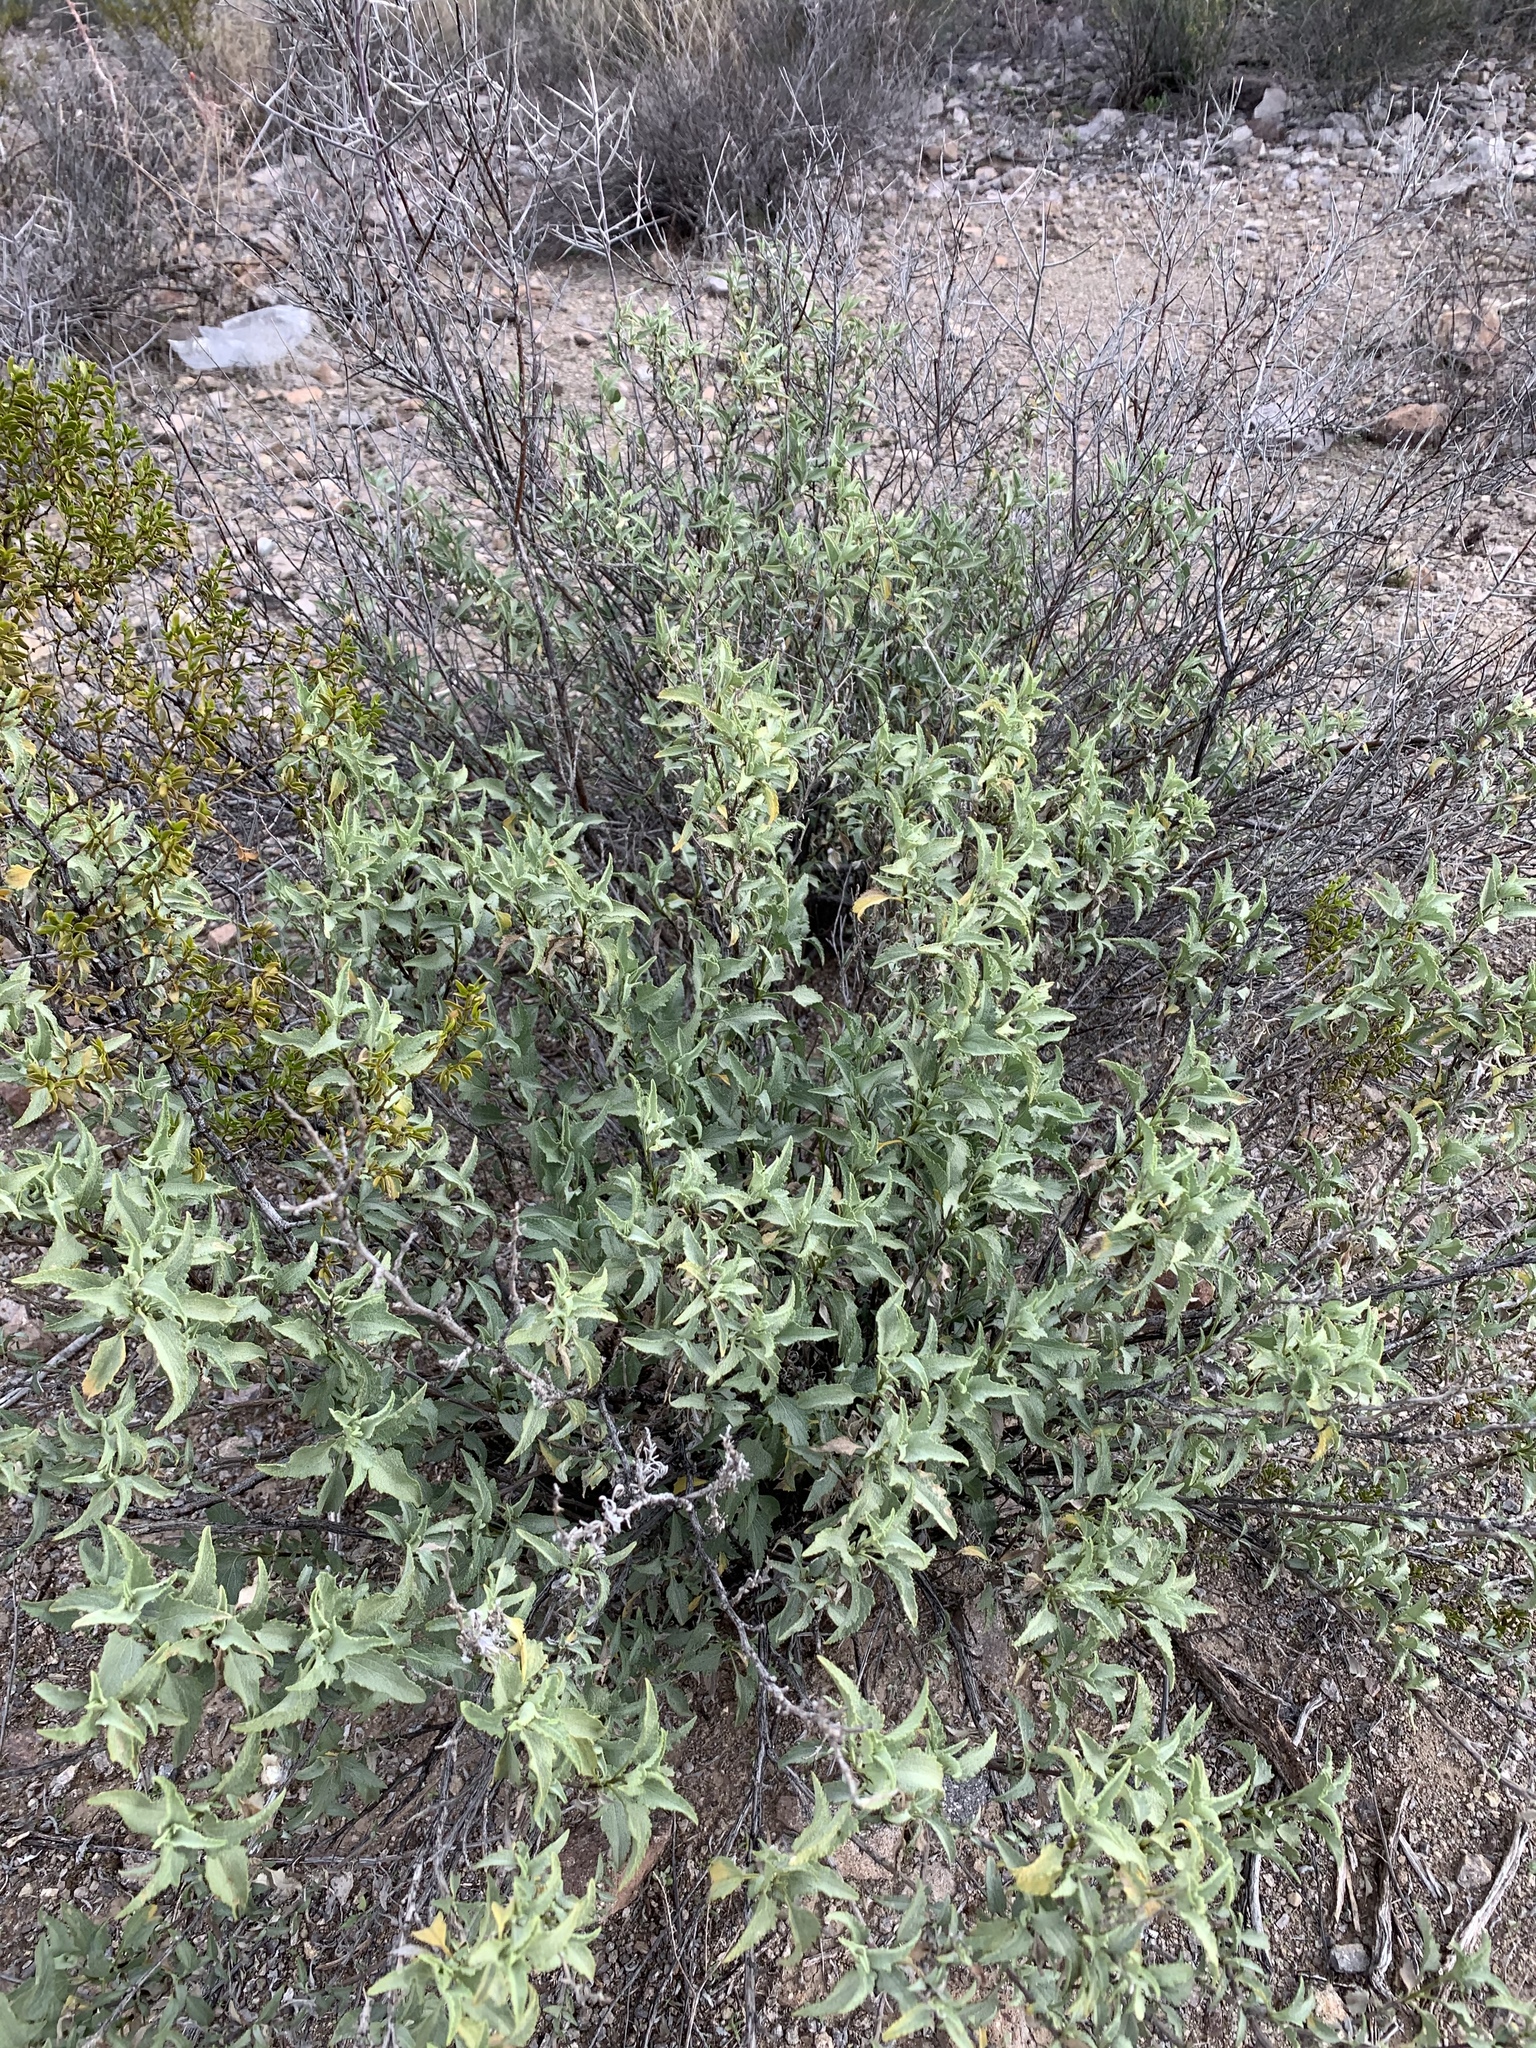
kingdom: Plantae
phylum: Tracheophyta
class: Magnoliopsida
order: Asterales
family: Asteraceae
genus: Ambrosia
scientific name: Ambrosia deltoidea
